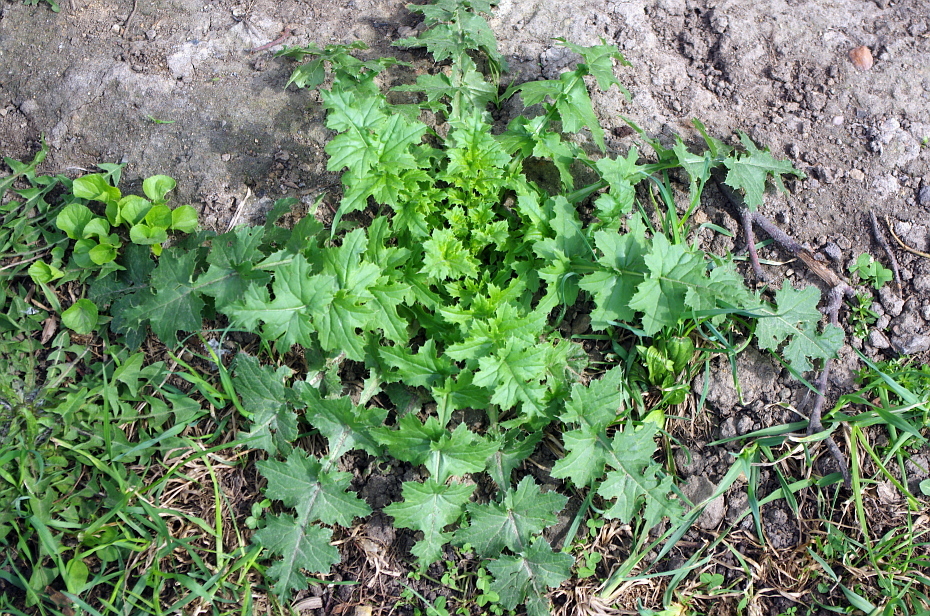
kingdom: Plantae
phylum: Tracheophyta
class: Magnoliopsida
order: Asterales
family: Asteraceae
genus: Carduus
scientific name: Carduus crispus
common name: Welted thistle
